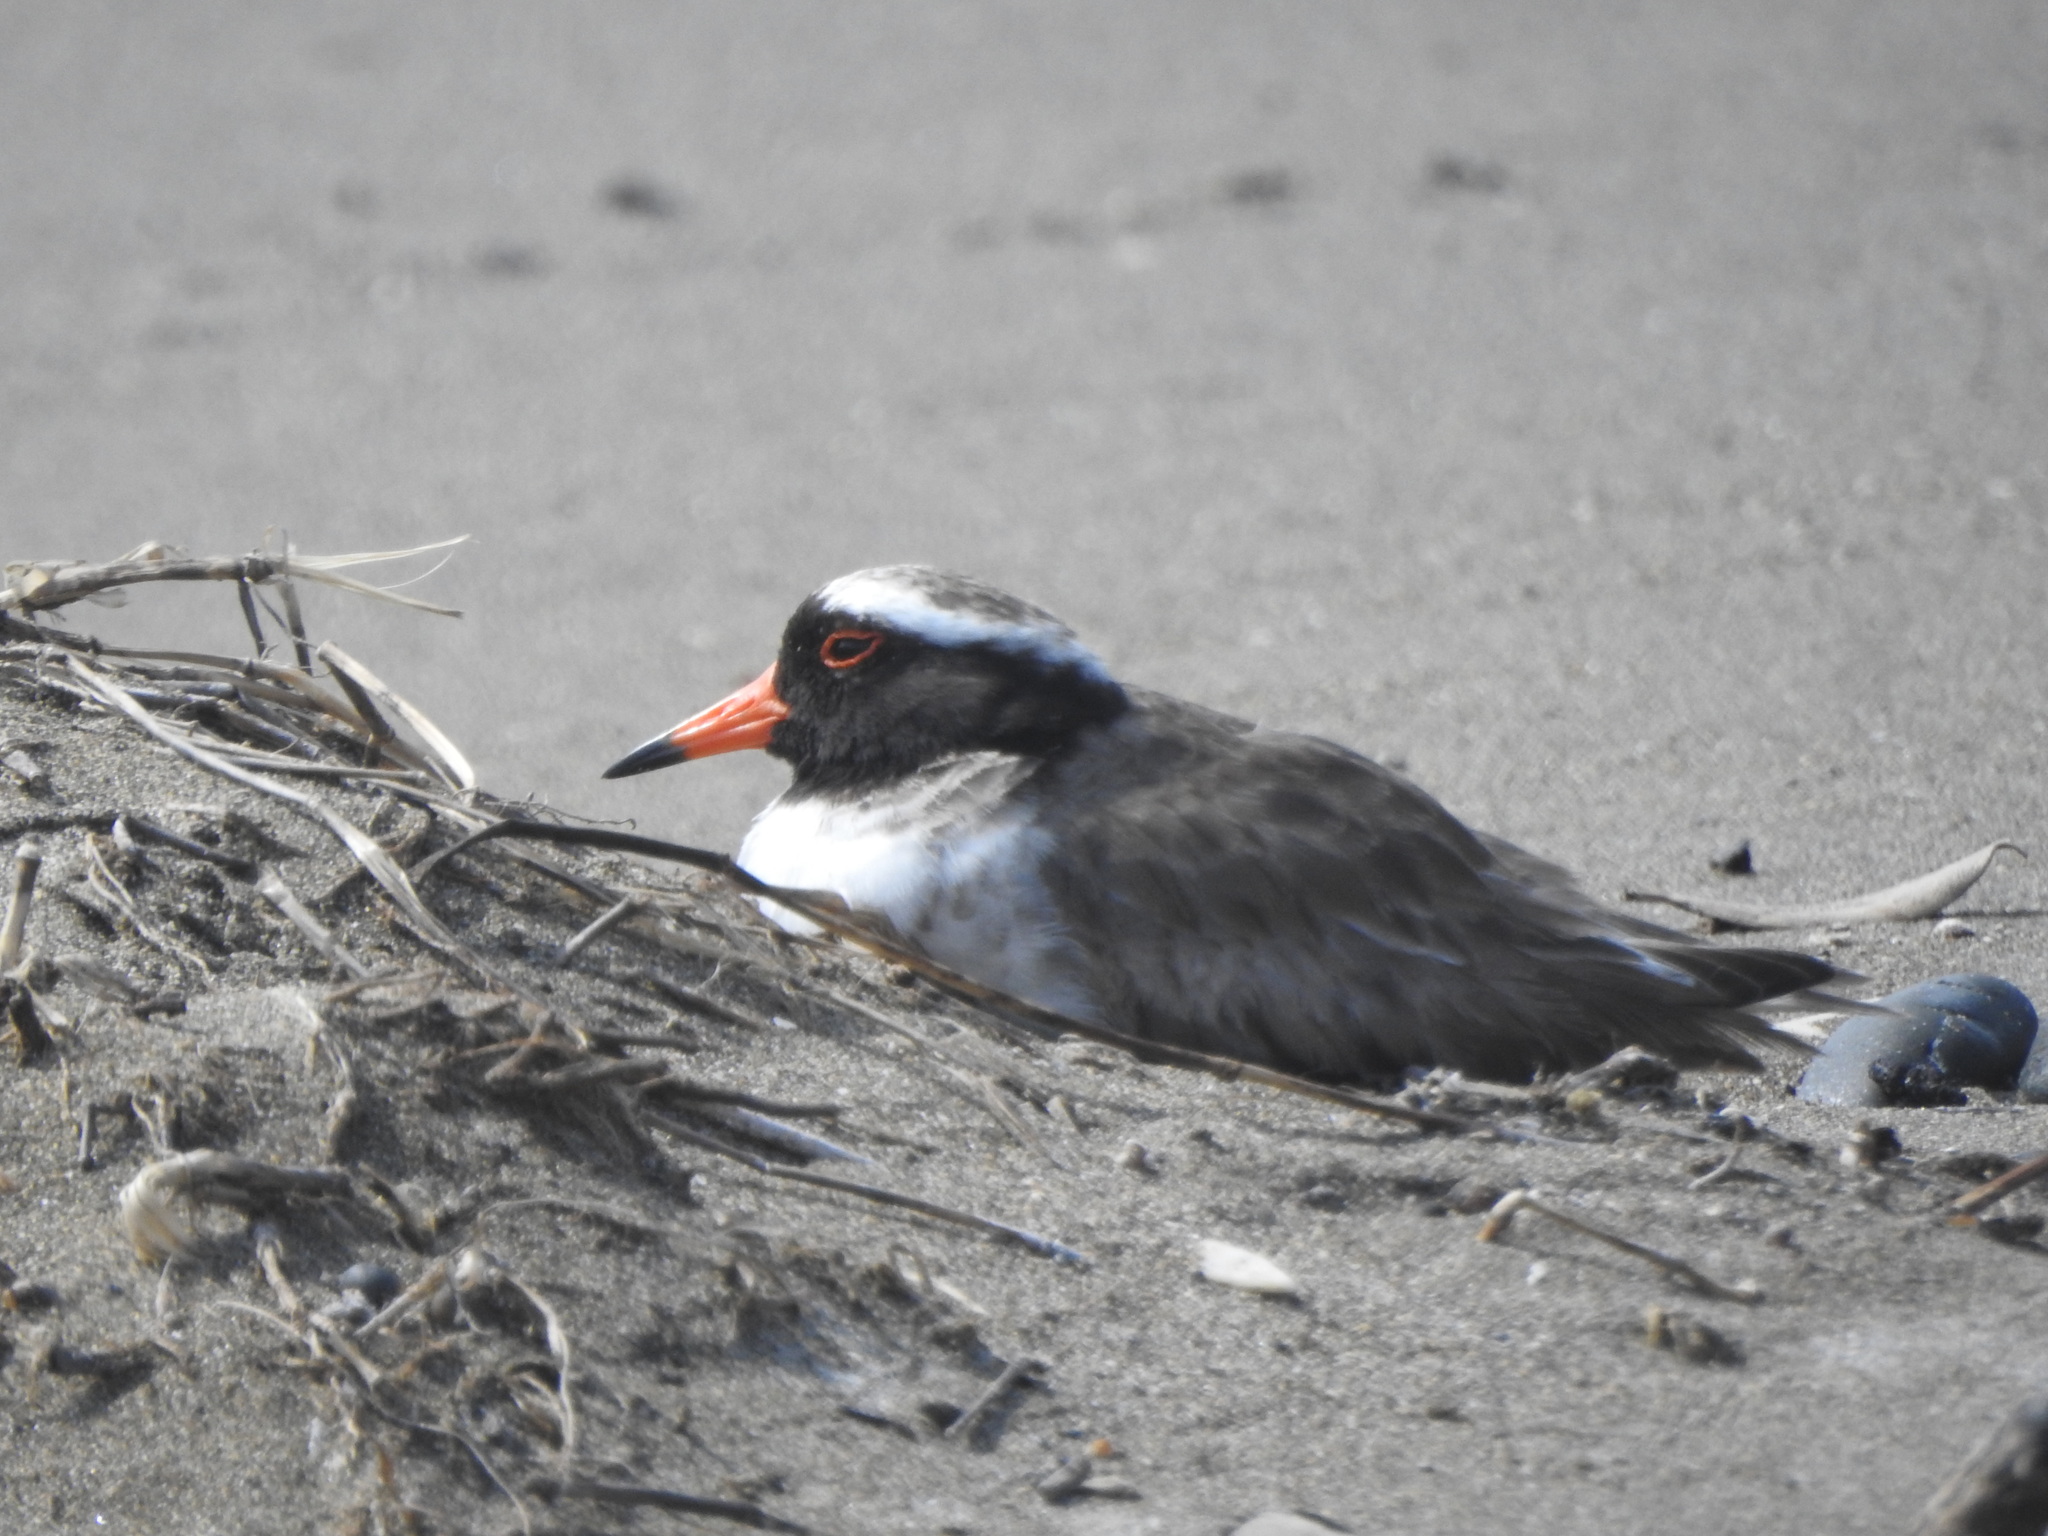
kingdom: Animalia
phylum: Chordata
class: Aves
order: Charadriiformes
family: Charadriidae
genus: Thinornis
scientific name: Thinornis novaeseelandiae
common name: Shore dotterel
